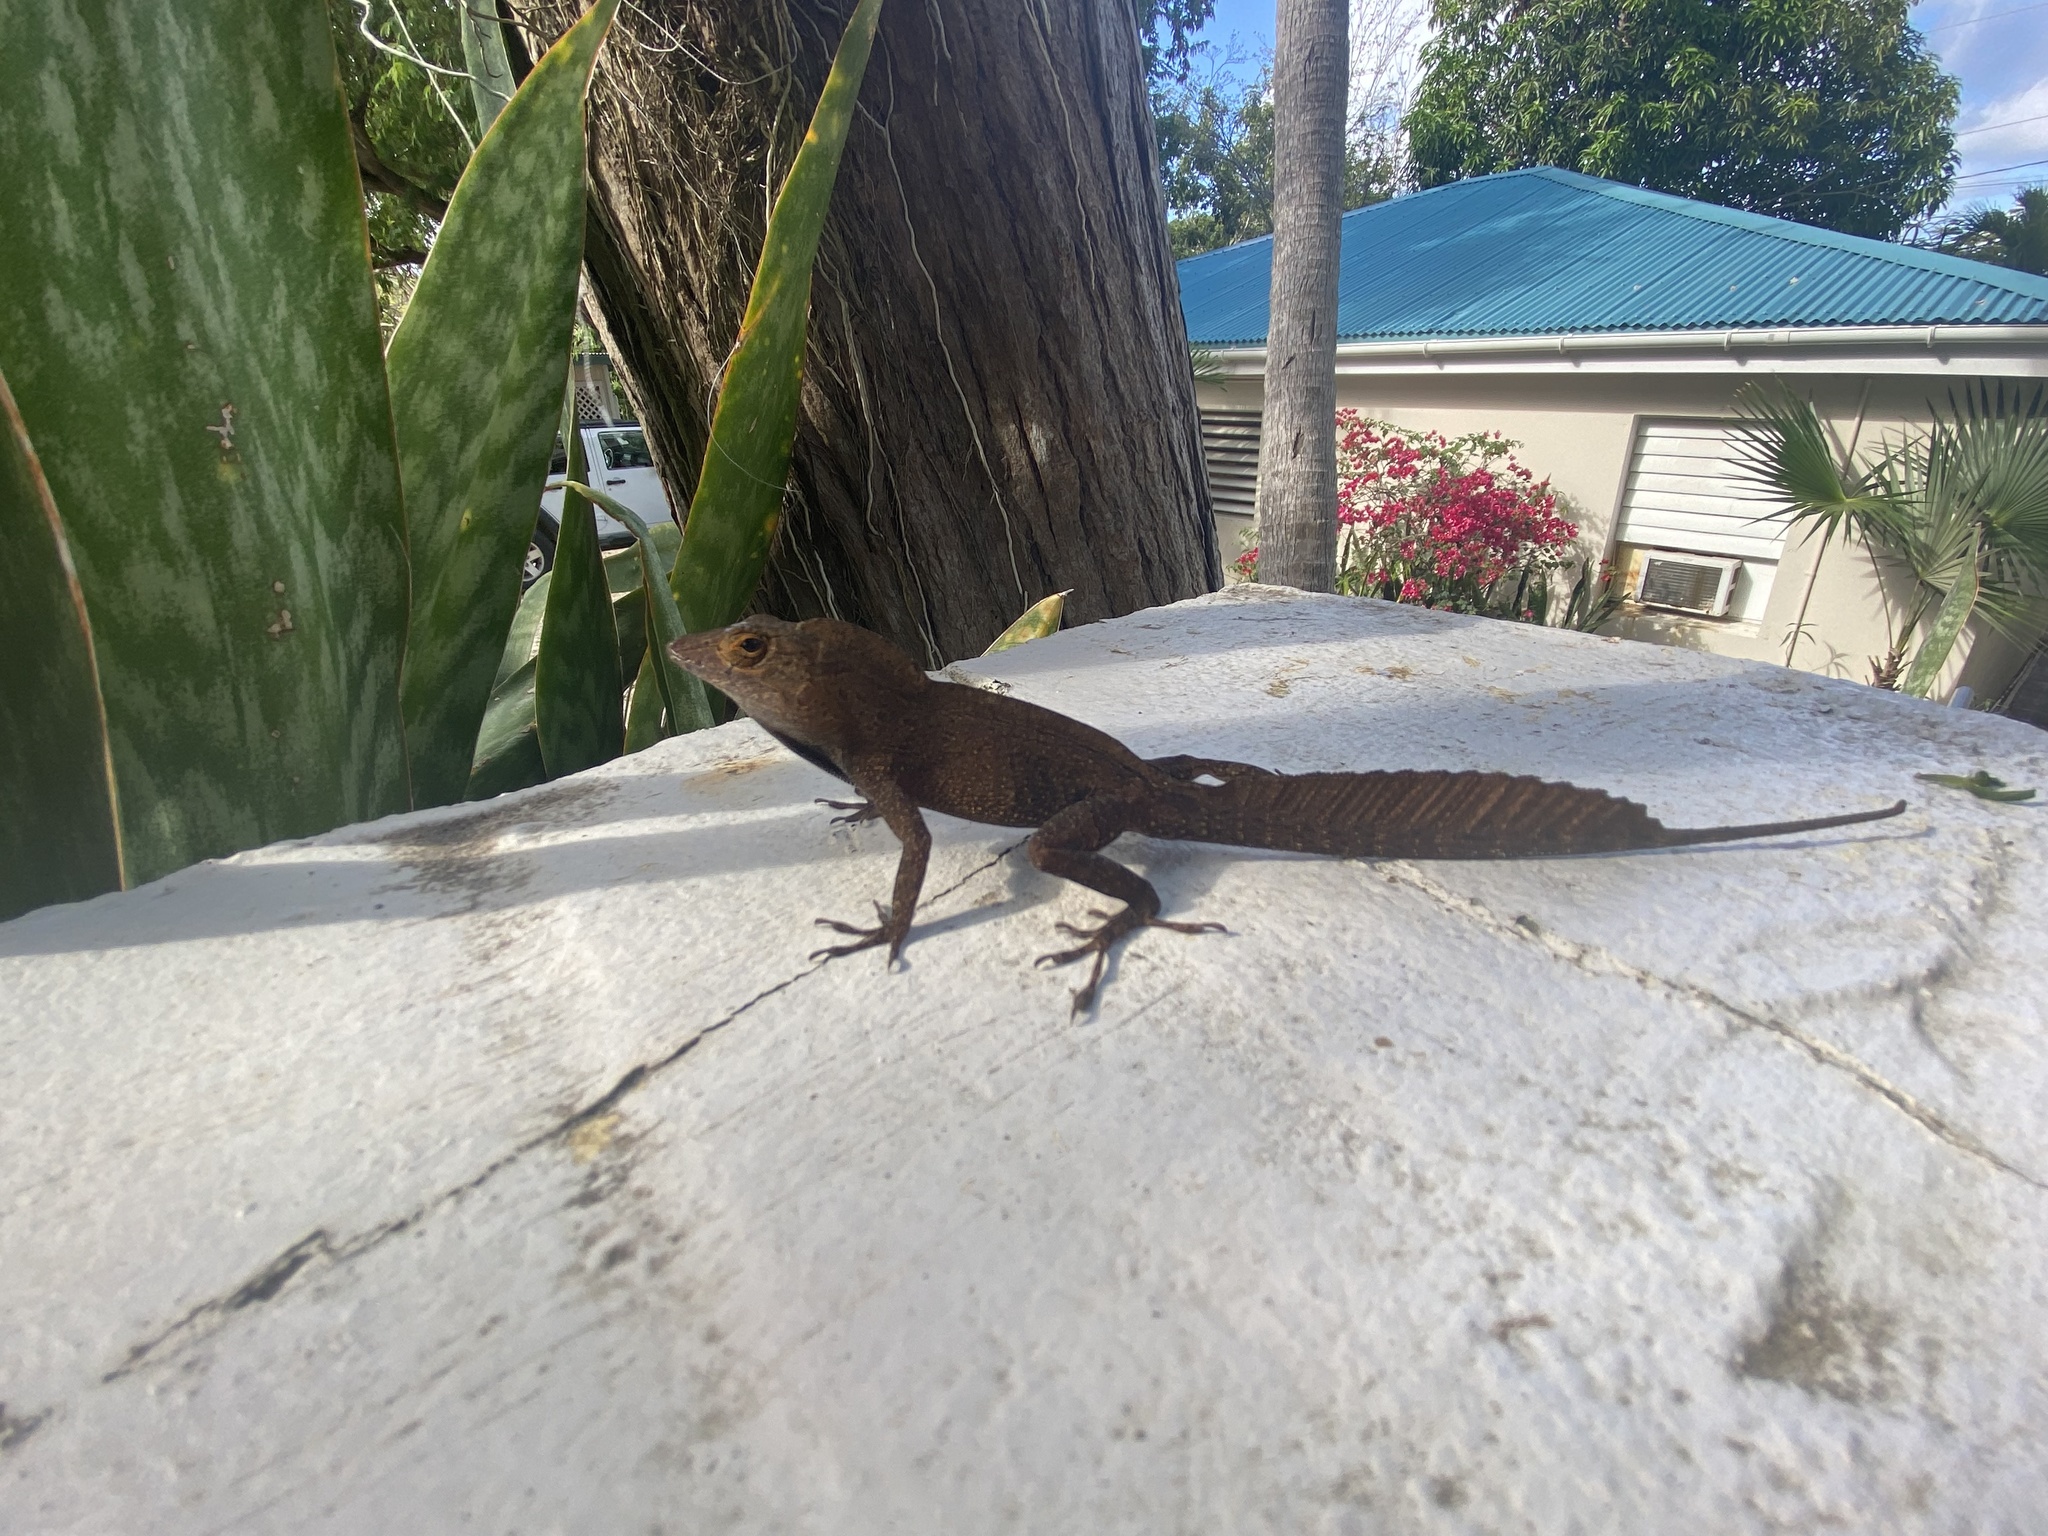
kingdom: Animalia
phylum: Chordata
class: Squamata
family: Dactyloidae
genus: Anolis
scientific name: Anolis cristatellus
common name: Crested anole
